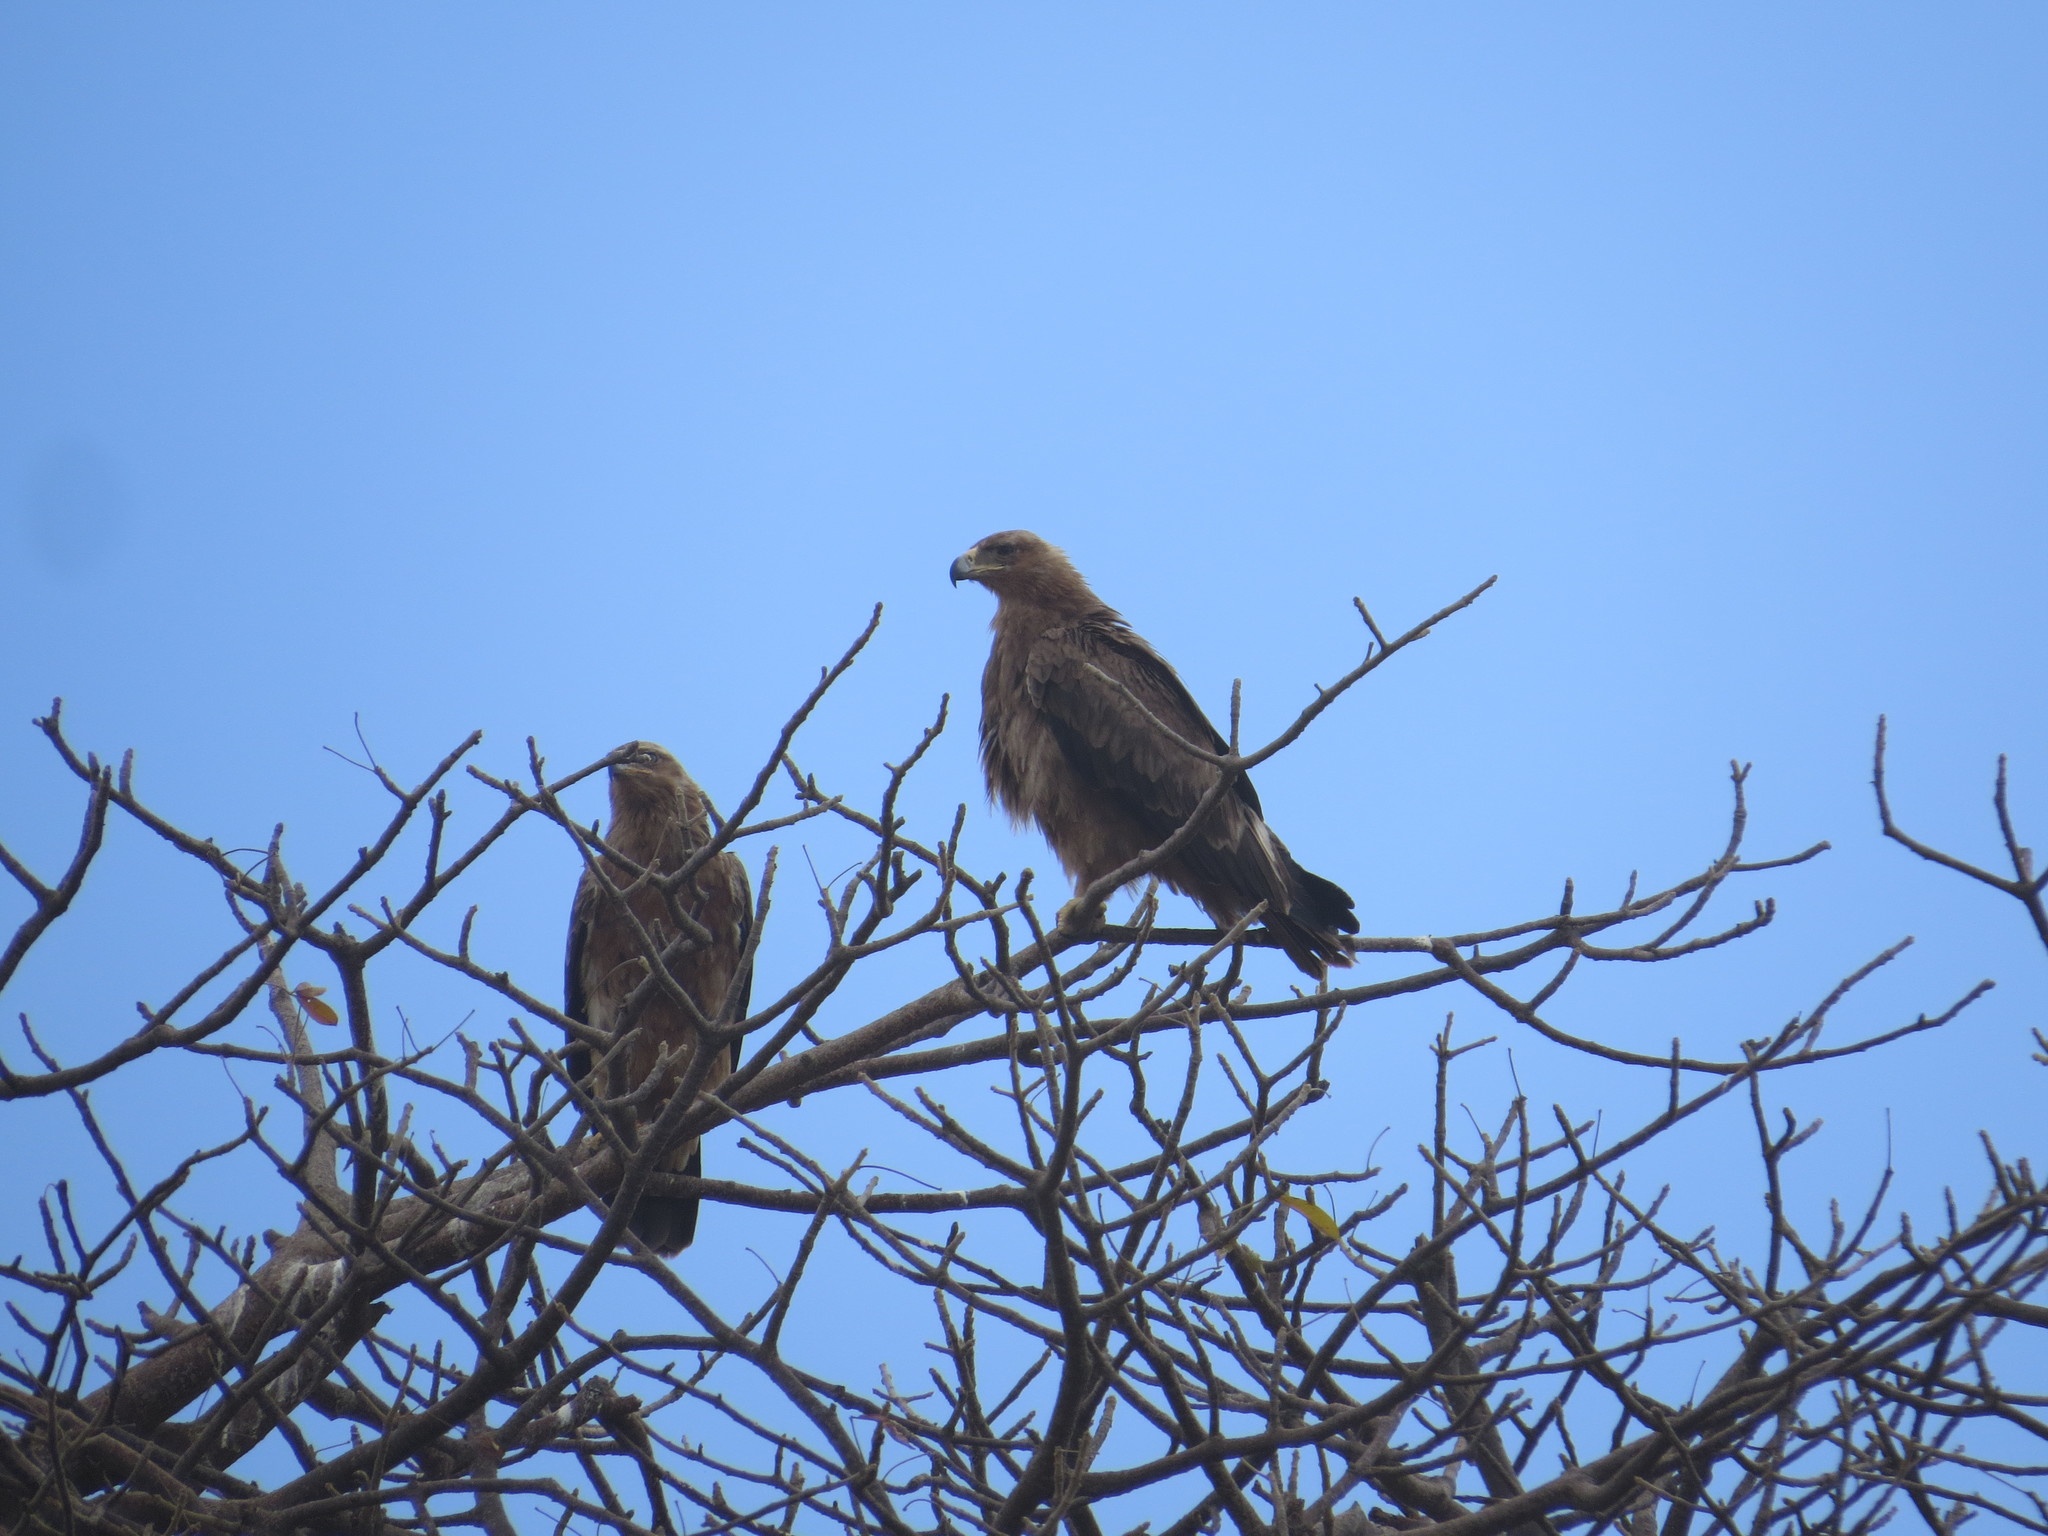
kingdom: Animalia
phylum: Chordata
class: Aves
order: Accipitriformes
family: Accipitridae
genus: Aquila
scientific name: Aquila rapax
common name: Tawny eagle
